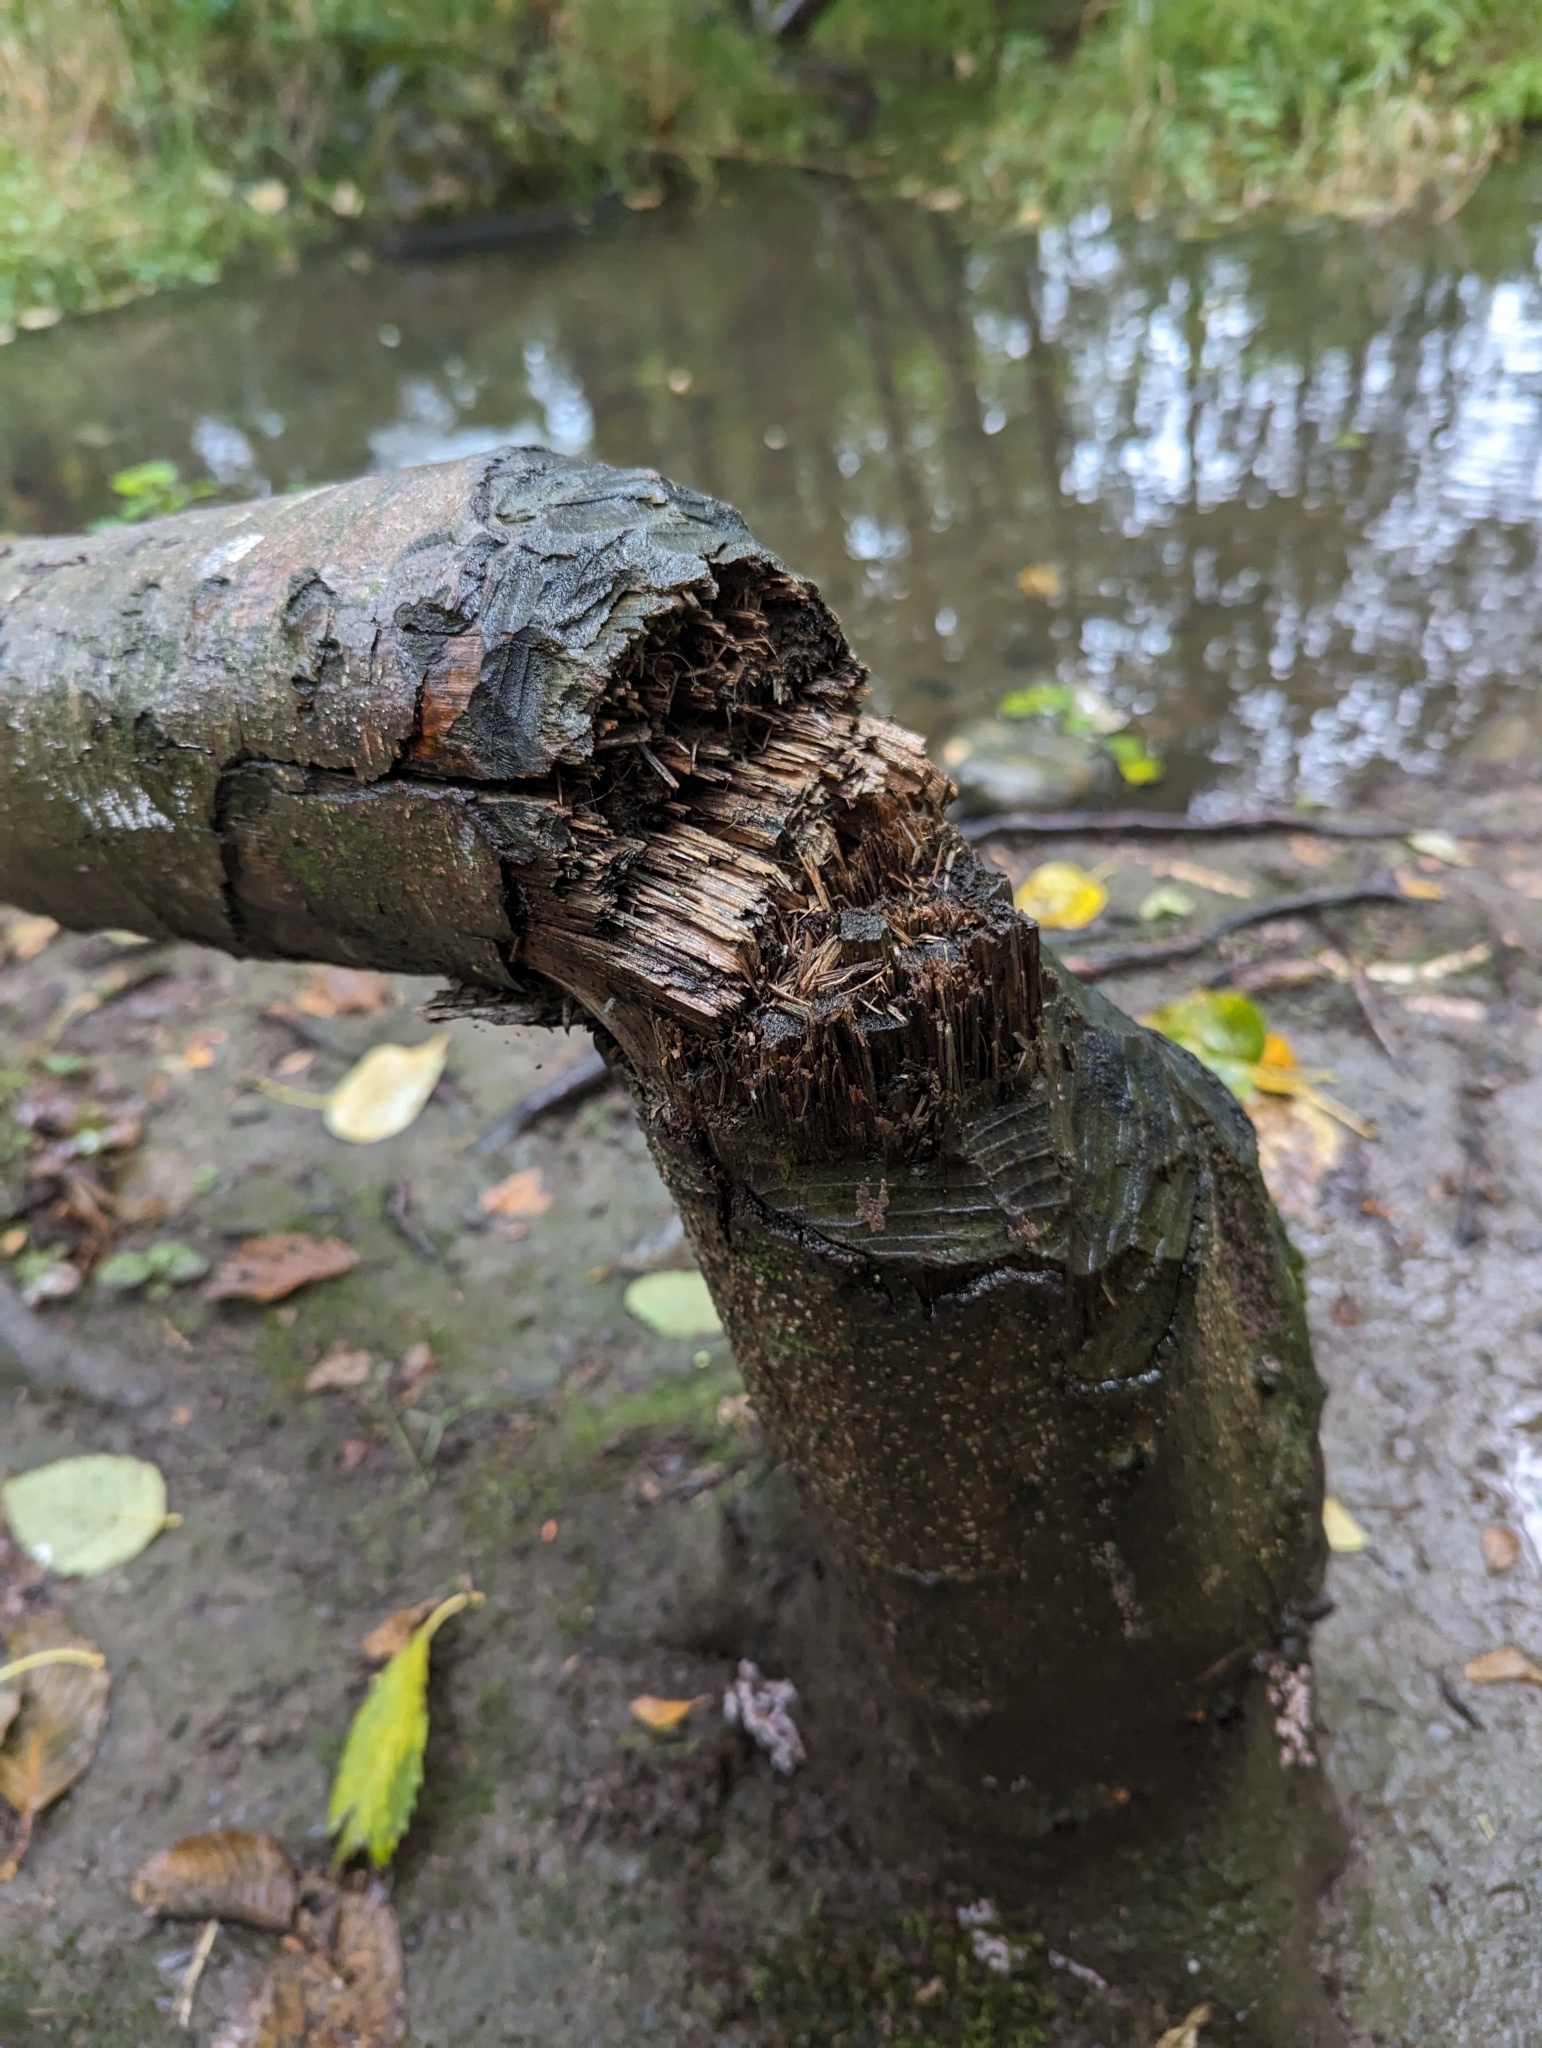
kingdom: Animalia
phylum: Chordata
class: Mammalia
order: Rodentia
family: Castoridae
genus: Castor
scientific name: Castor canadensis
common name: American beaver
